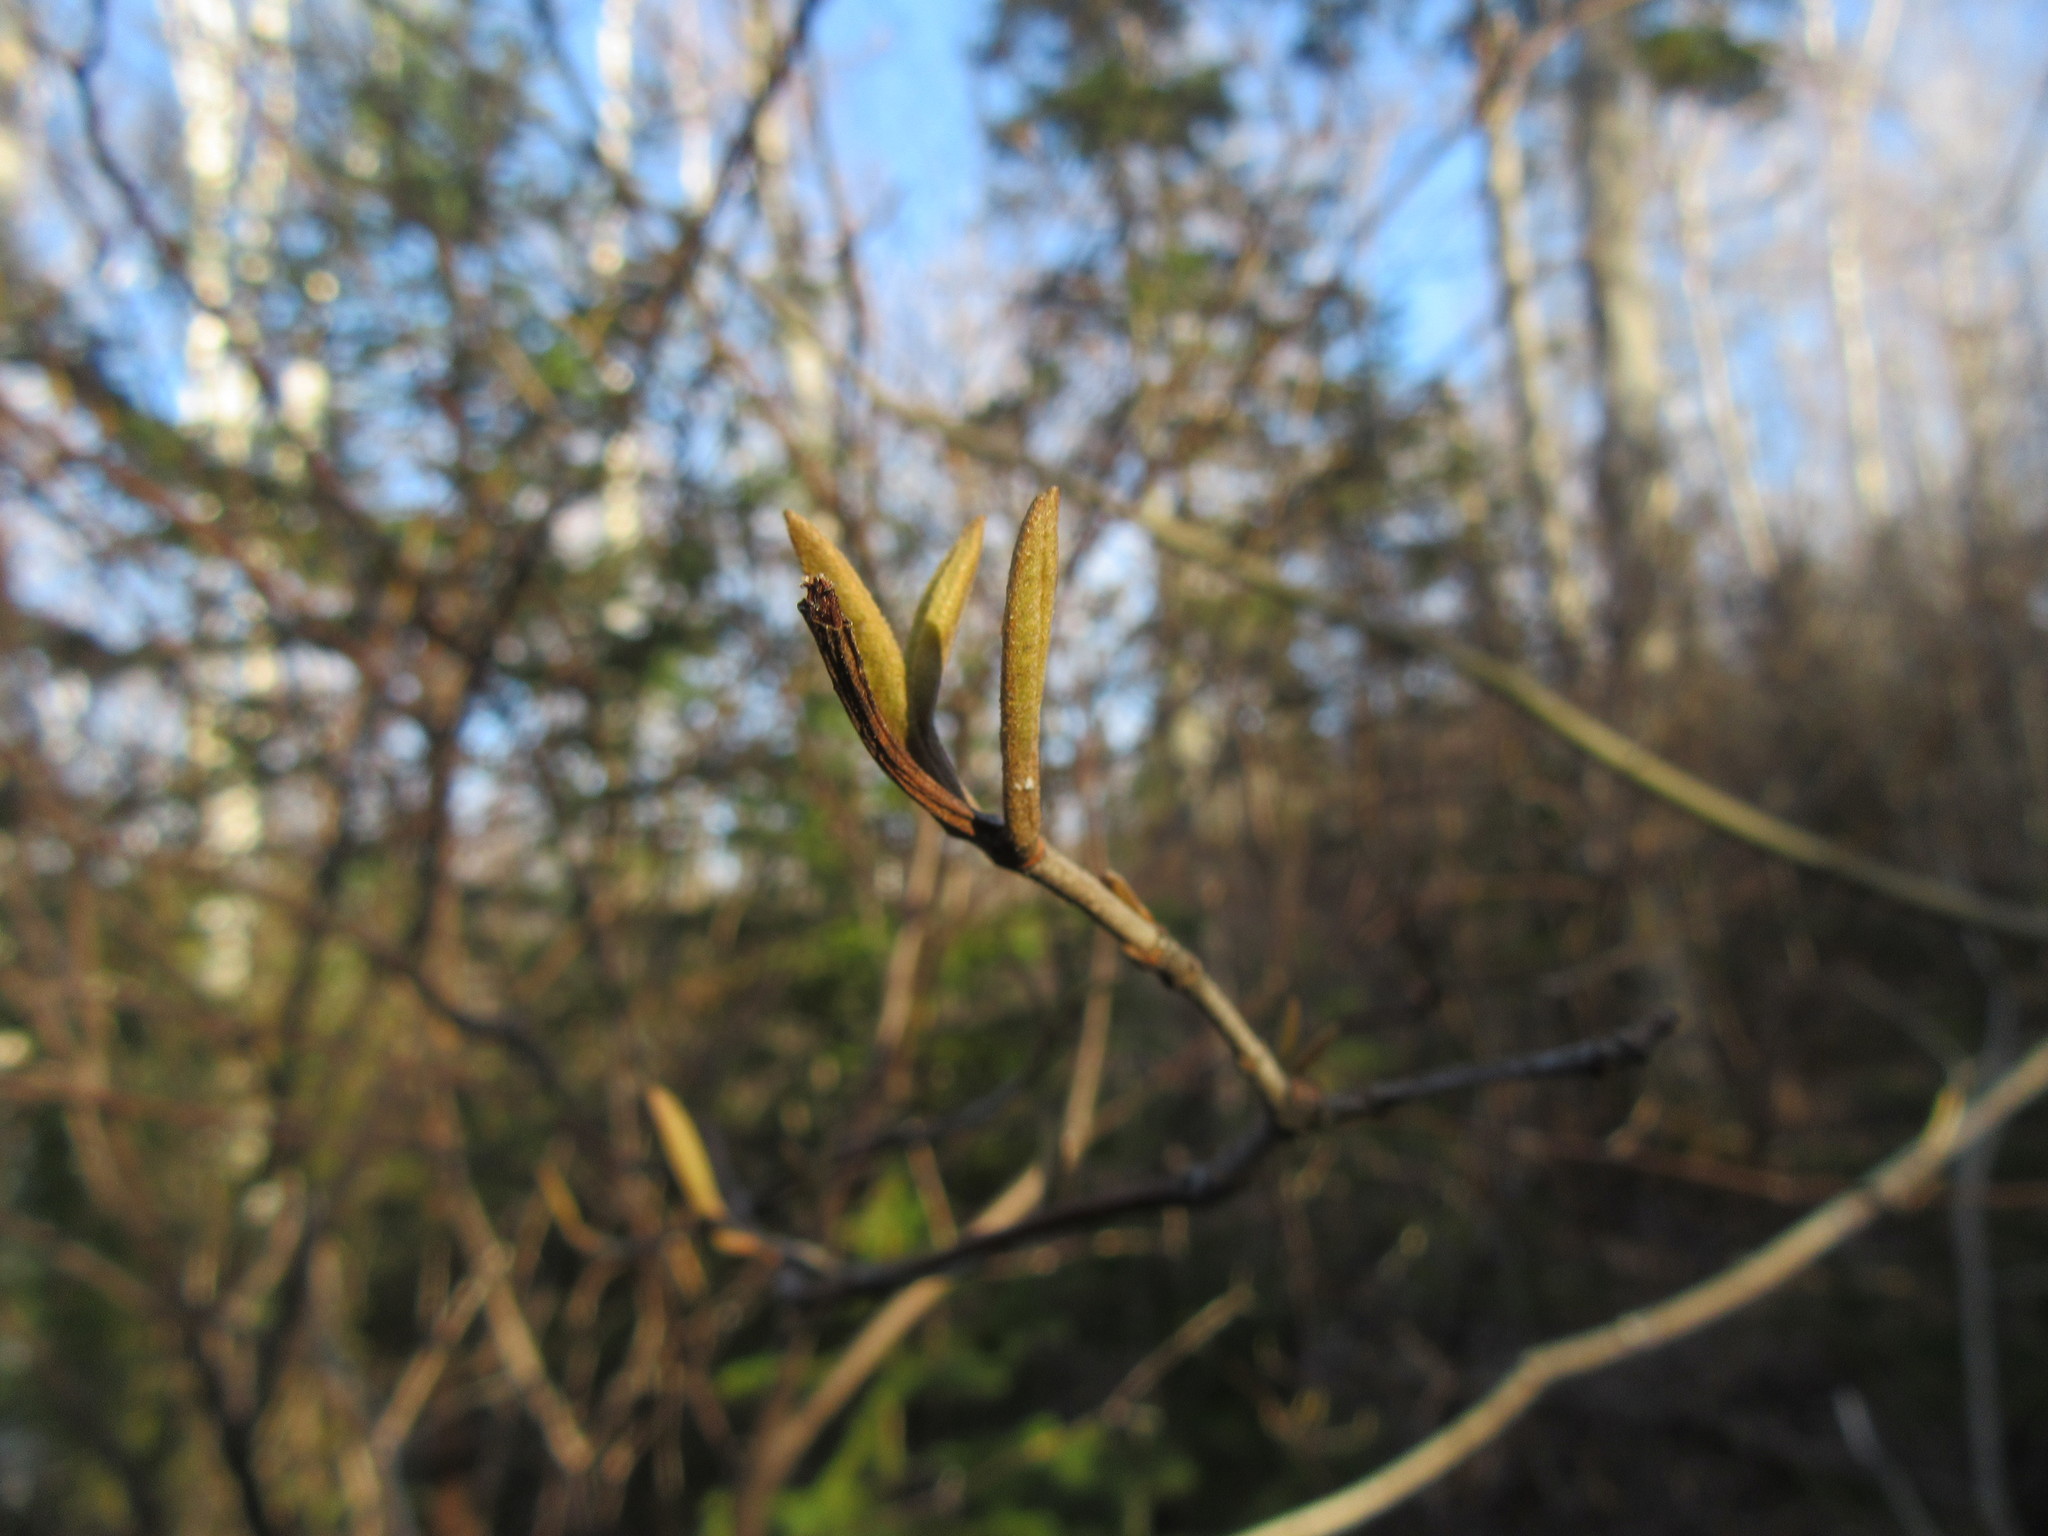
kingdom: Plantae
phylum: Tracheophyta
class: Magnoliopsida
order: Dipsacales
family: Viburnaceae
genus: Viburnum
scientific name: Viburnum cassinoides
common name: Swamp haw
